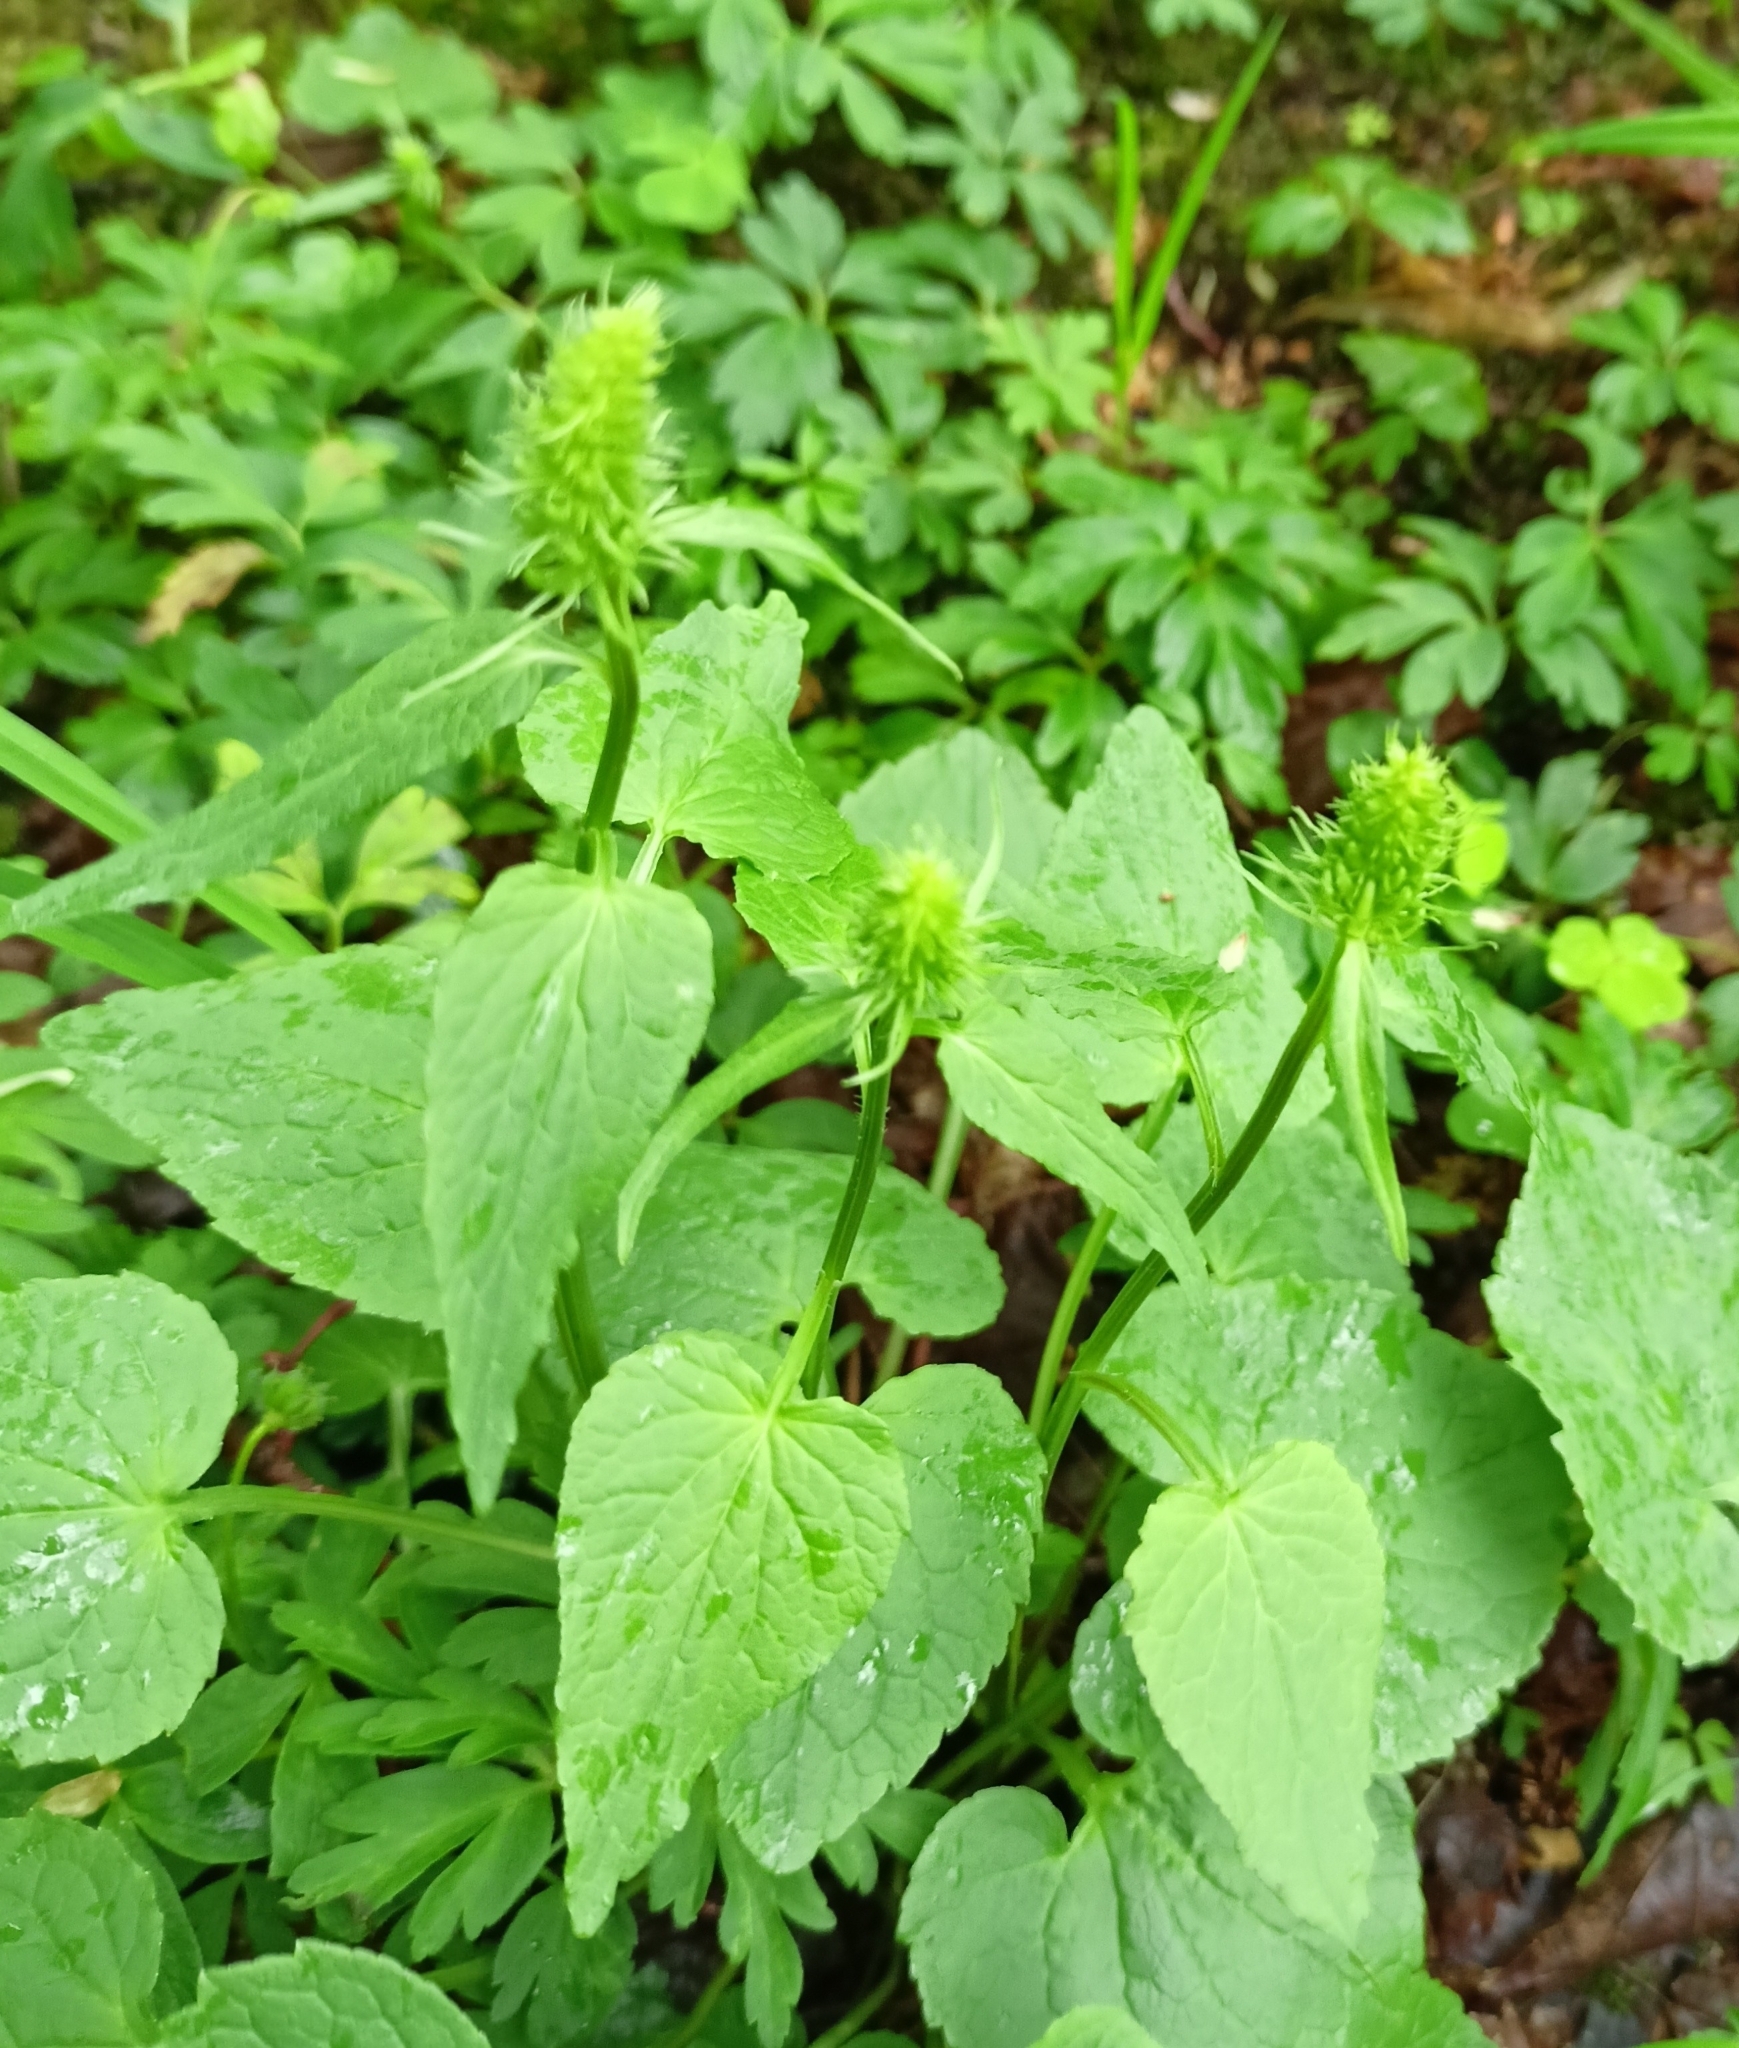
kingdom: Plantae
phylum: Tracheophyta
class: Magnoliopsida
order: Asterales
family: Campanulaceae
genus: Phyteuma
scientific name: Phyteuma spicatum
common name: Spiked rampion
